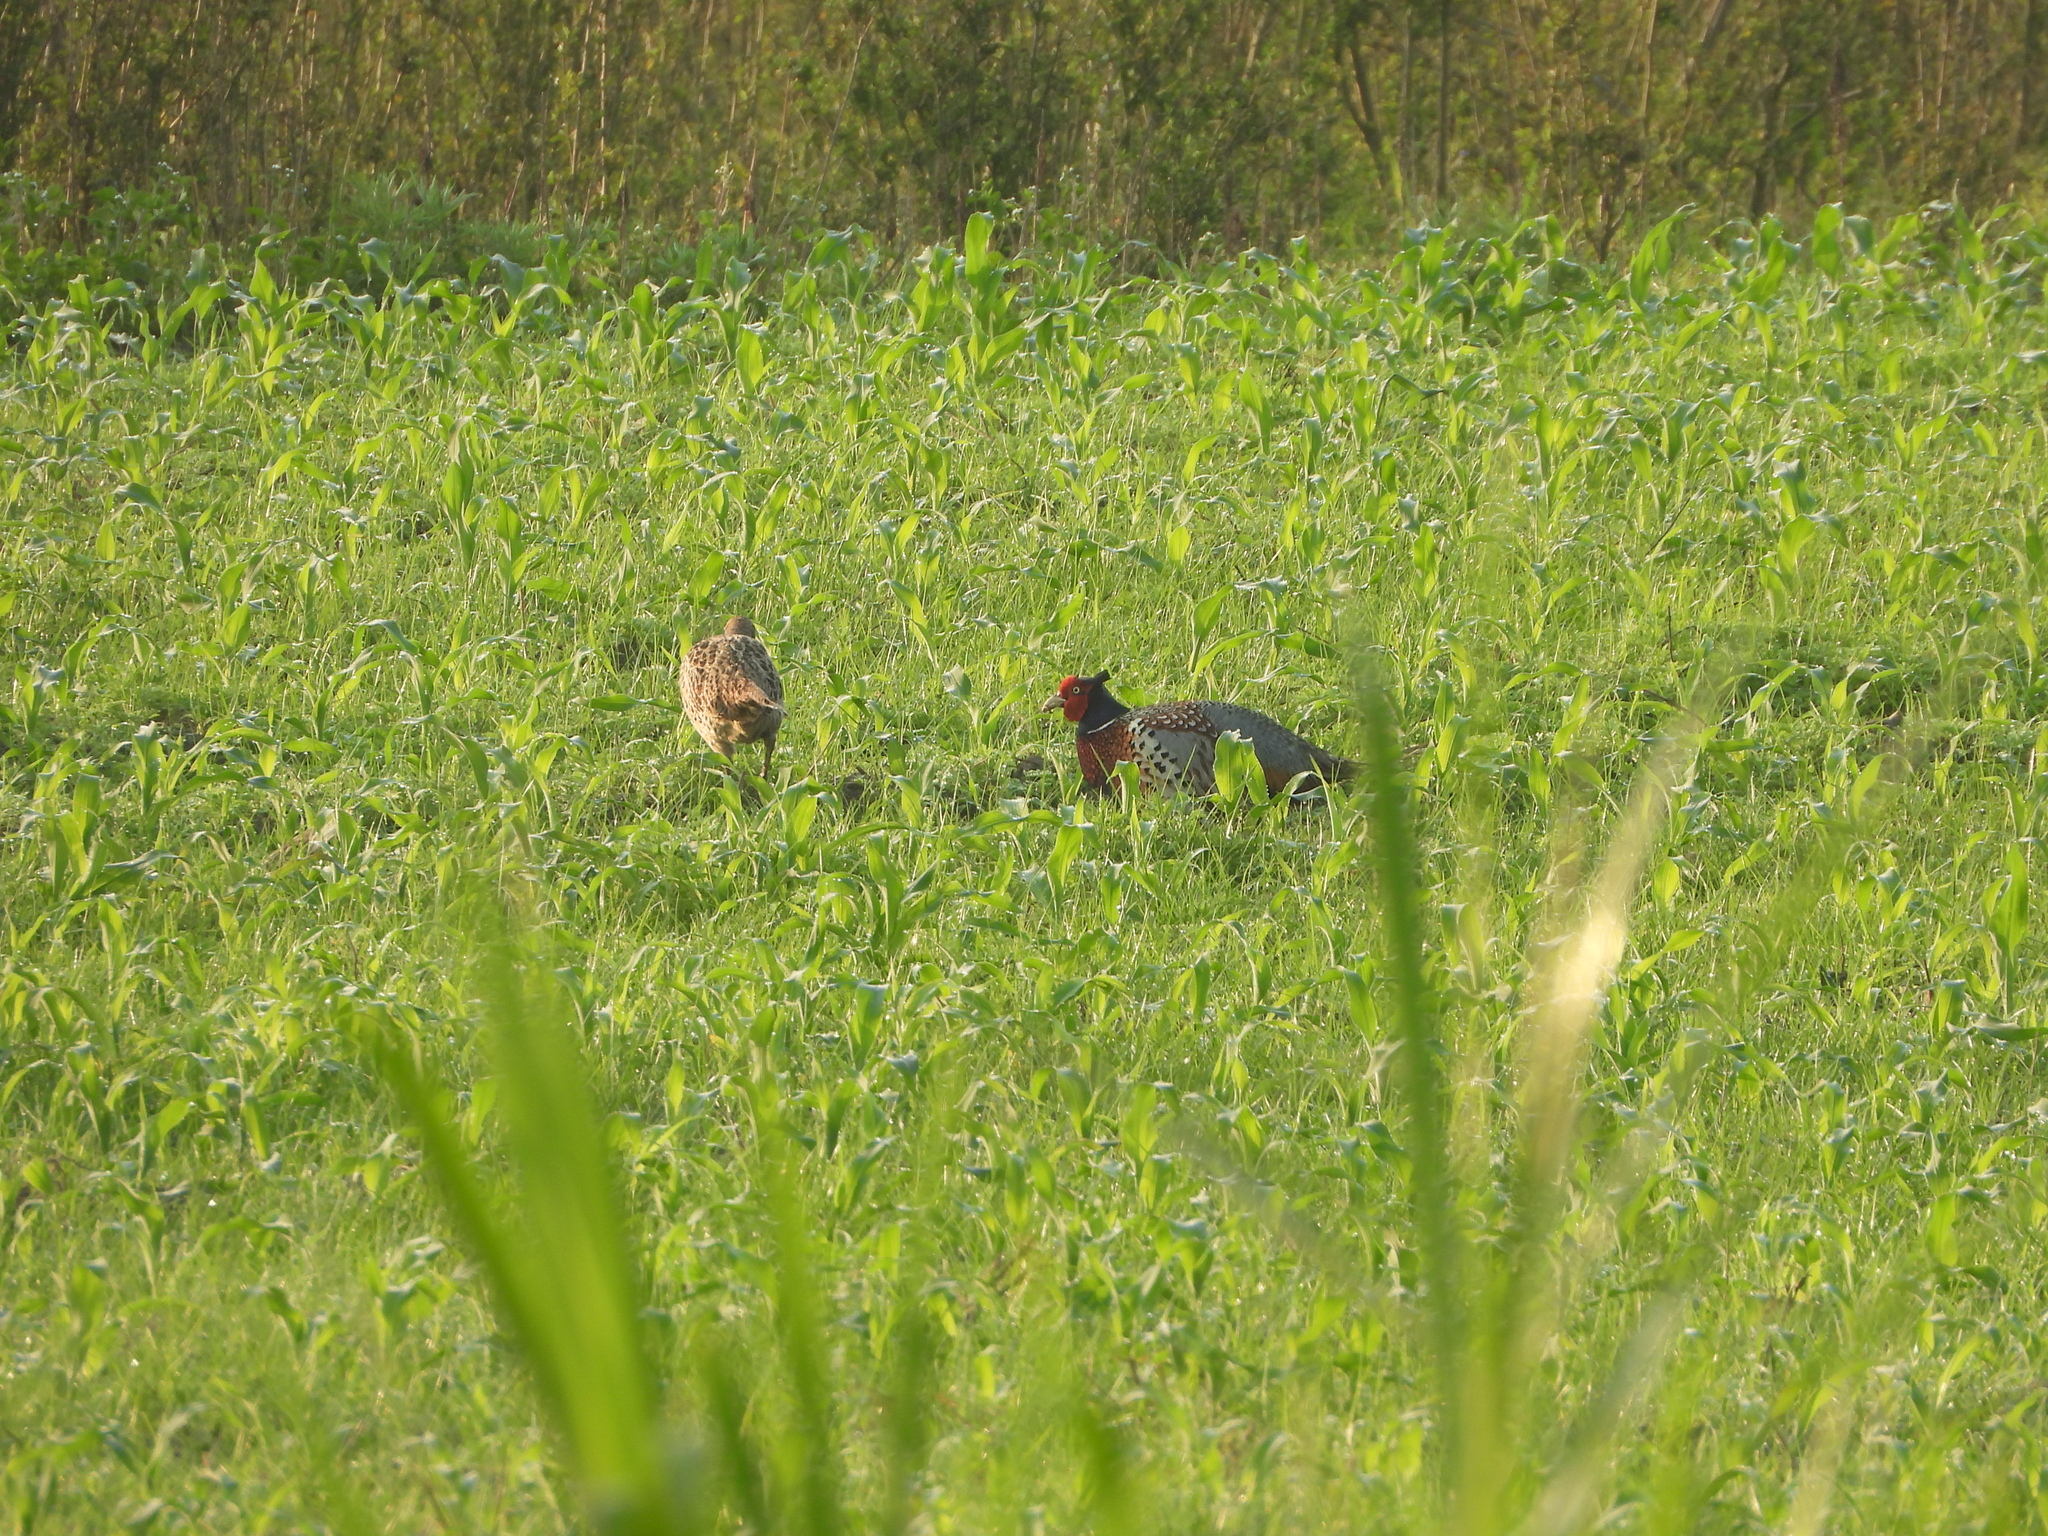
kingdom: Animalia
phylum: Chordata
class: Aves
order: Galliformes
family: Phasianidae
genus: Phasianus
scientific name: Phasianus colchicus
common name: Common pheasant
